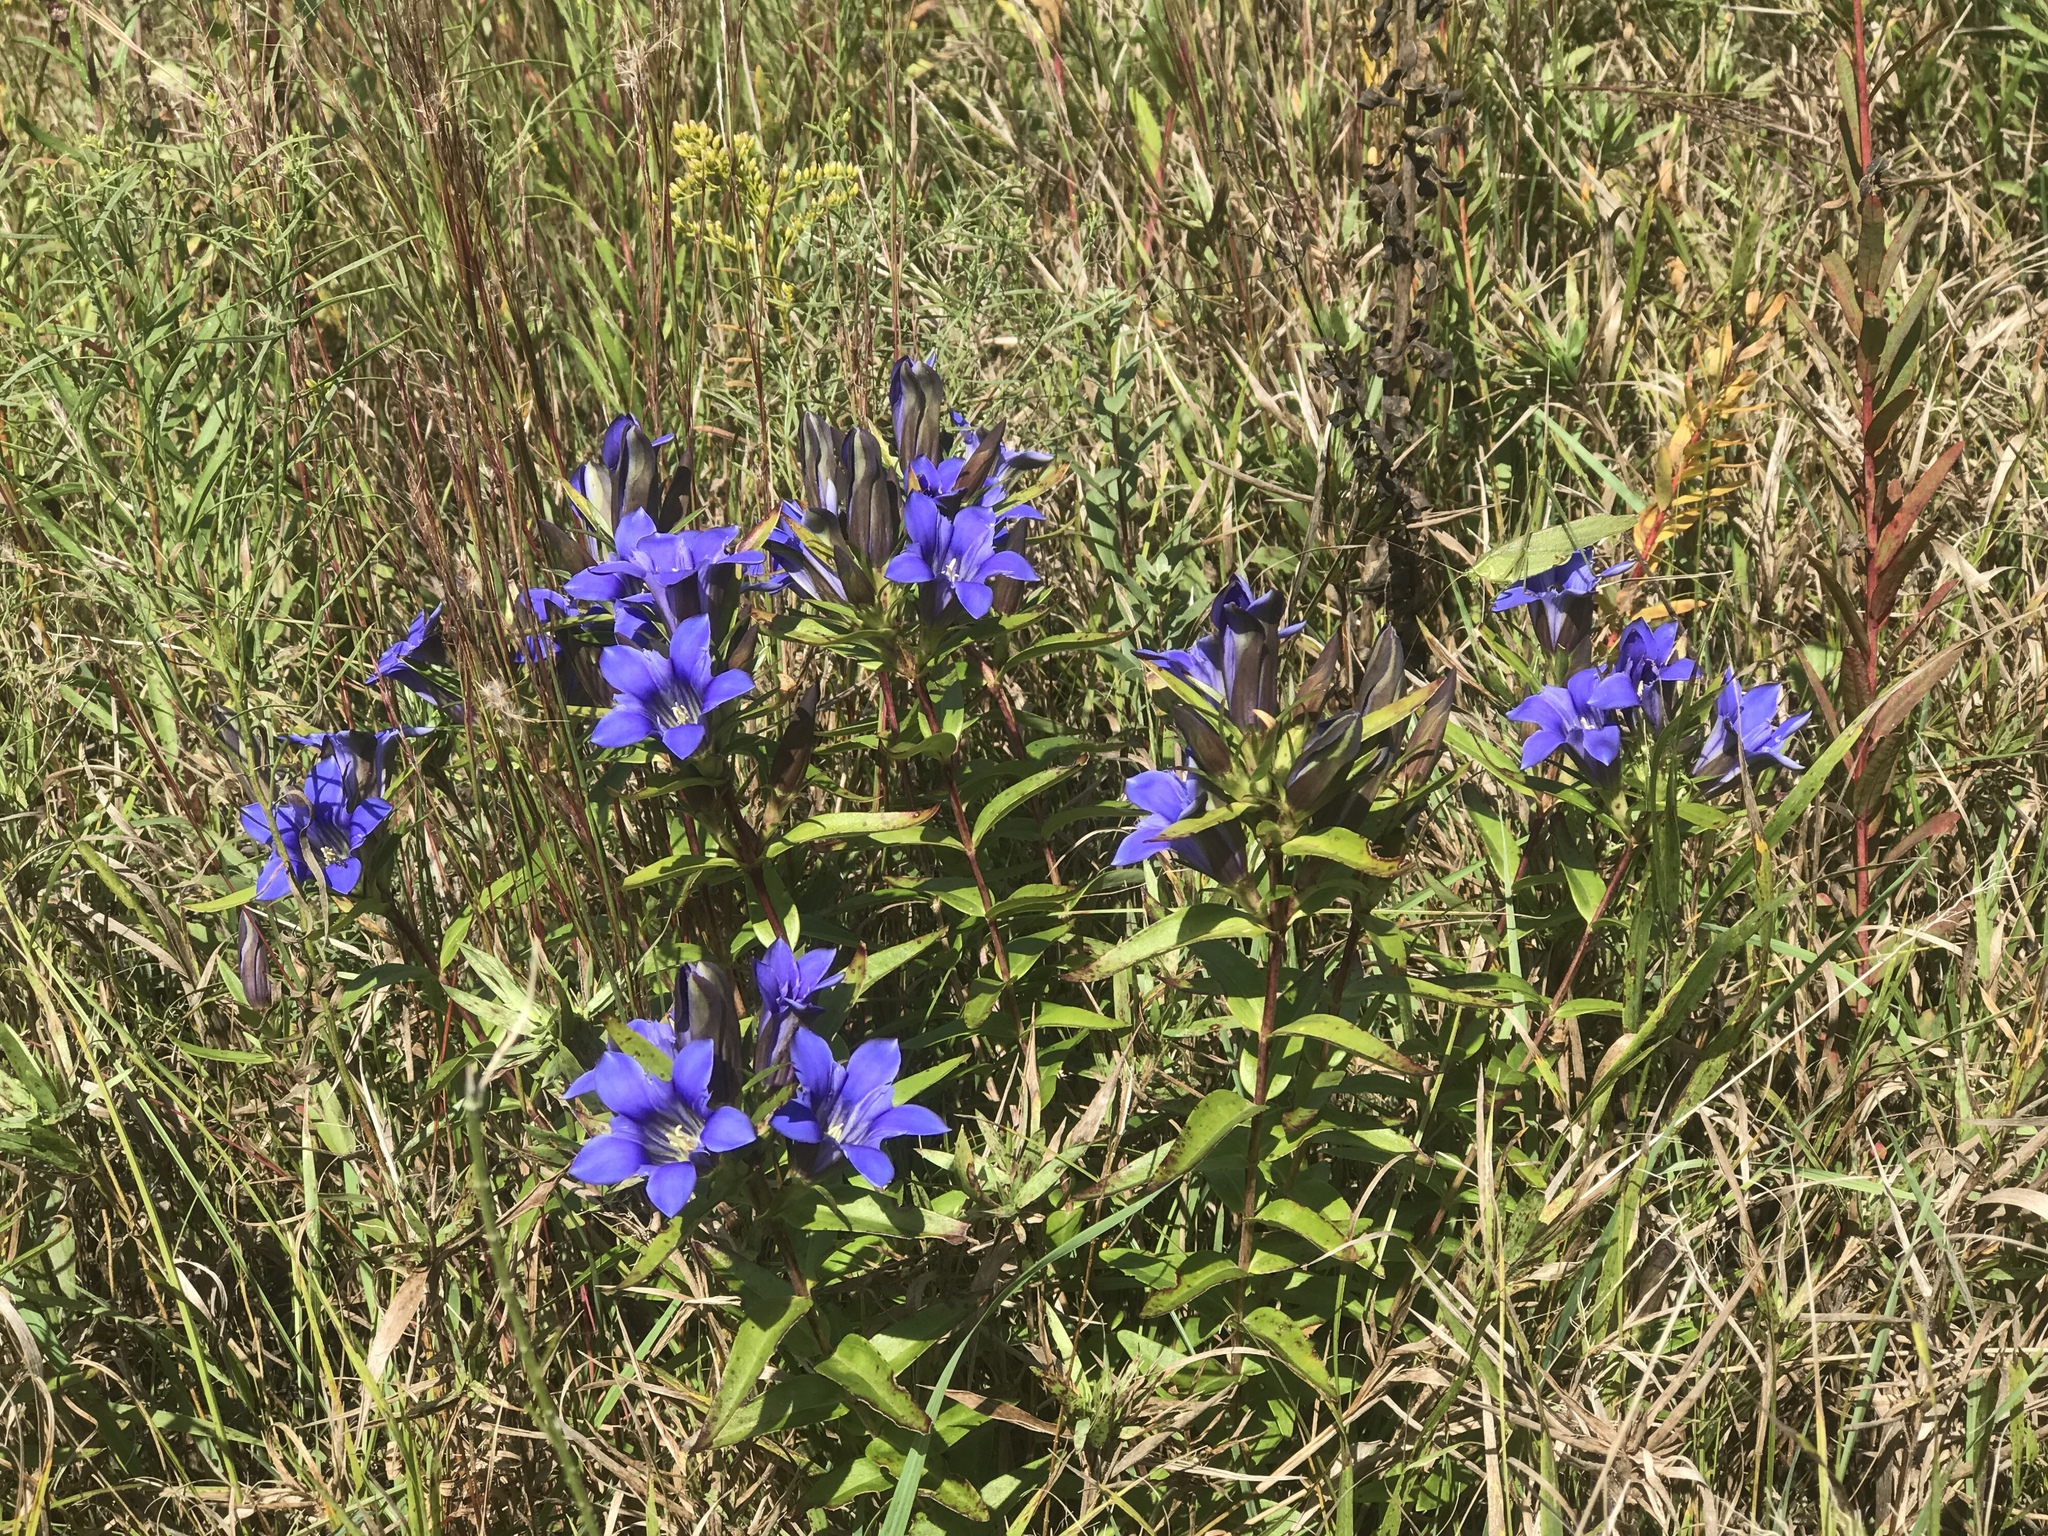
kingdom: Plantae
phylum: Tracheophyta
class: Magnoliopsida
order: Gentianales
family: Gentianaceae
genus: Gentiana
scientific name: Gentiana puberulenta
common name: Downy gentian
